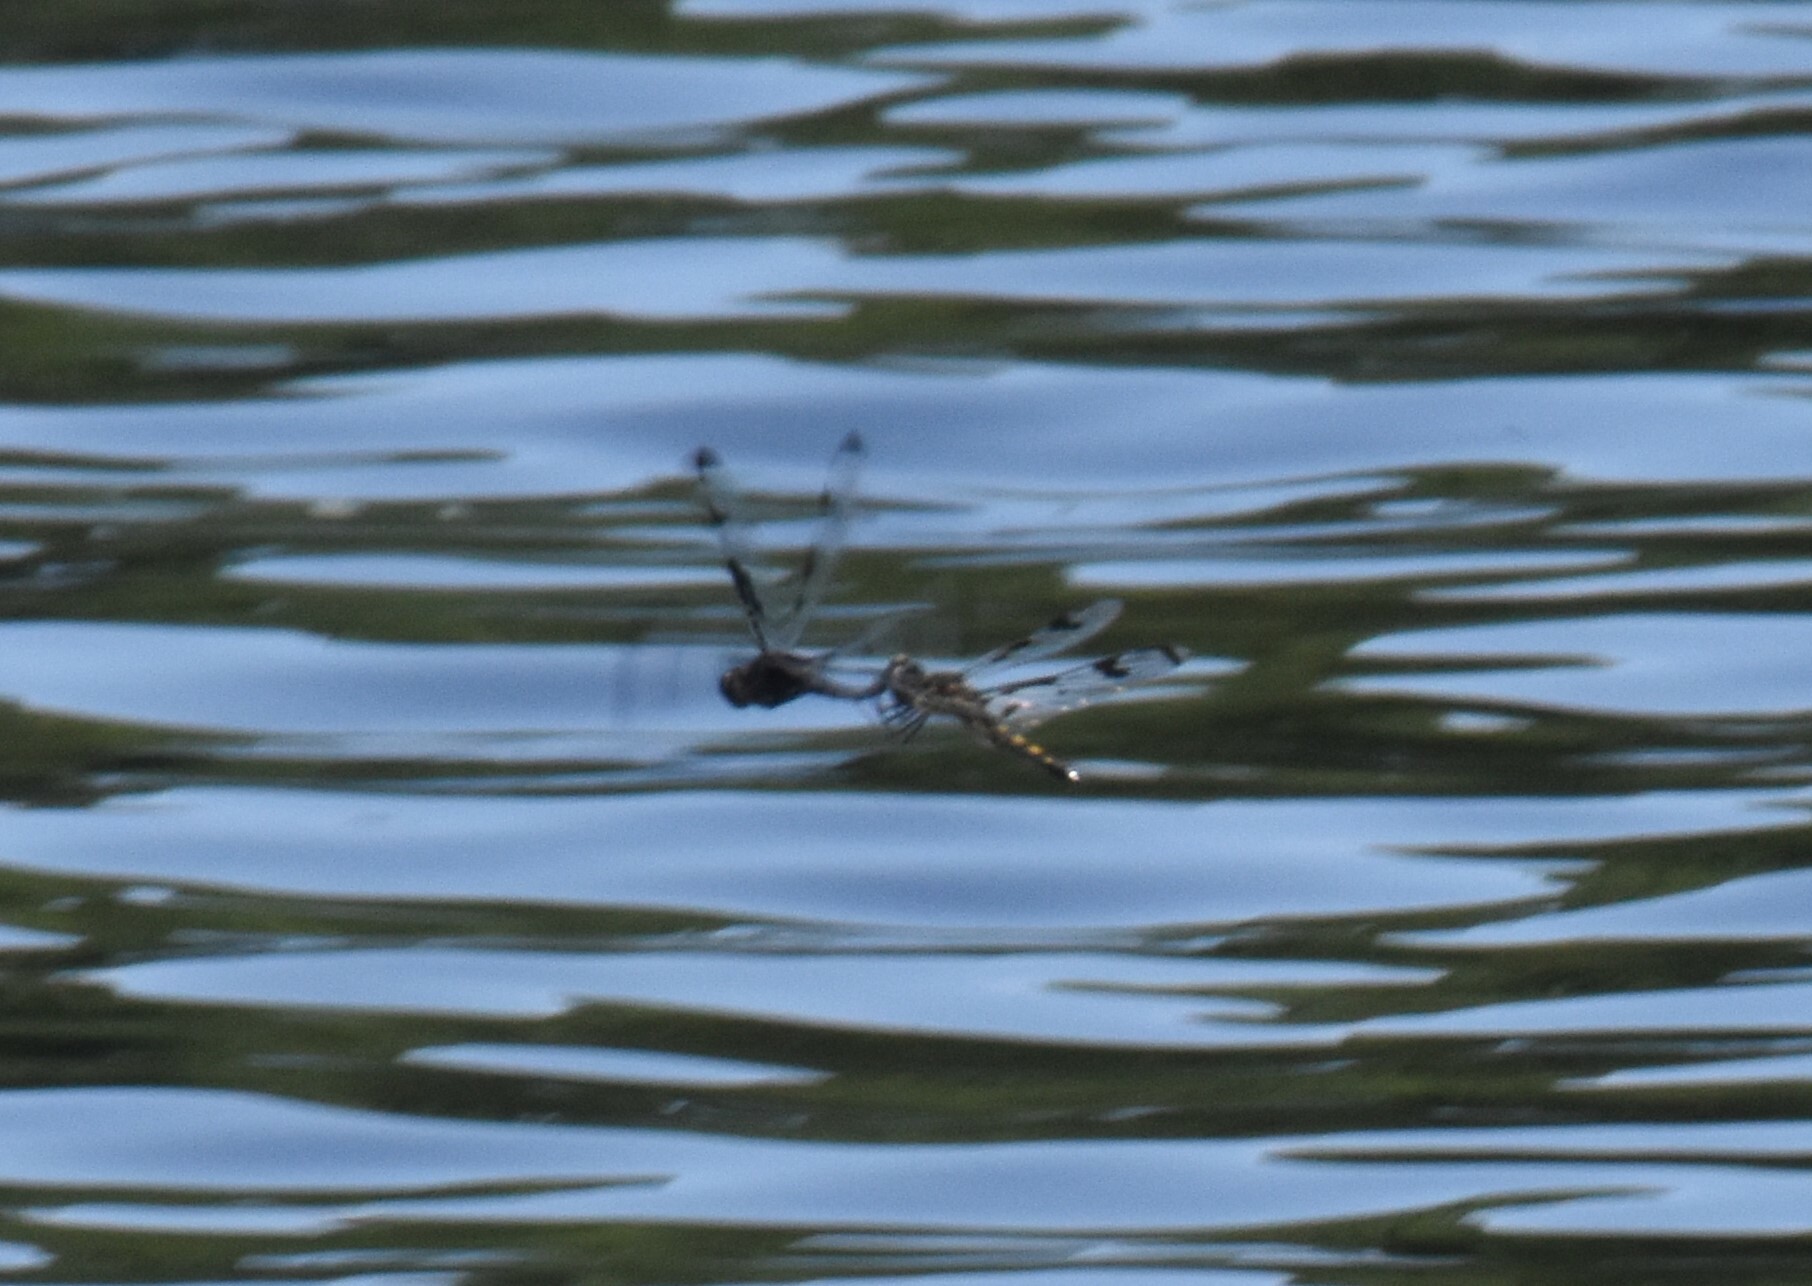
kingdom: Animalia
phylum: Arthropoda
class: Insecta
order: Odonata
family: Libellulidae
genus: Celithemis
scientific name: Celithemis fasciata
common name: Banded pennant
